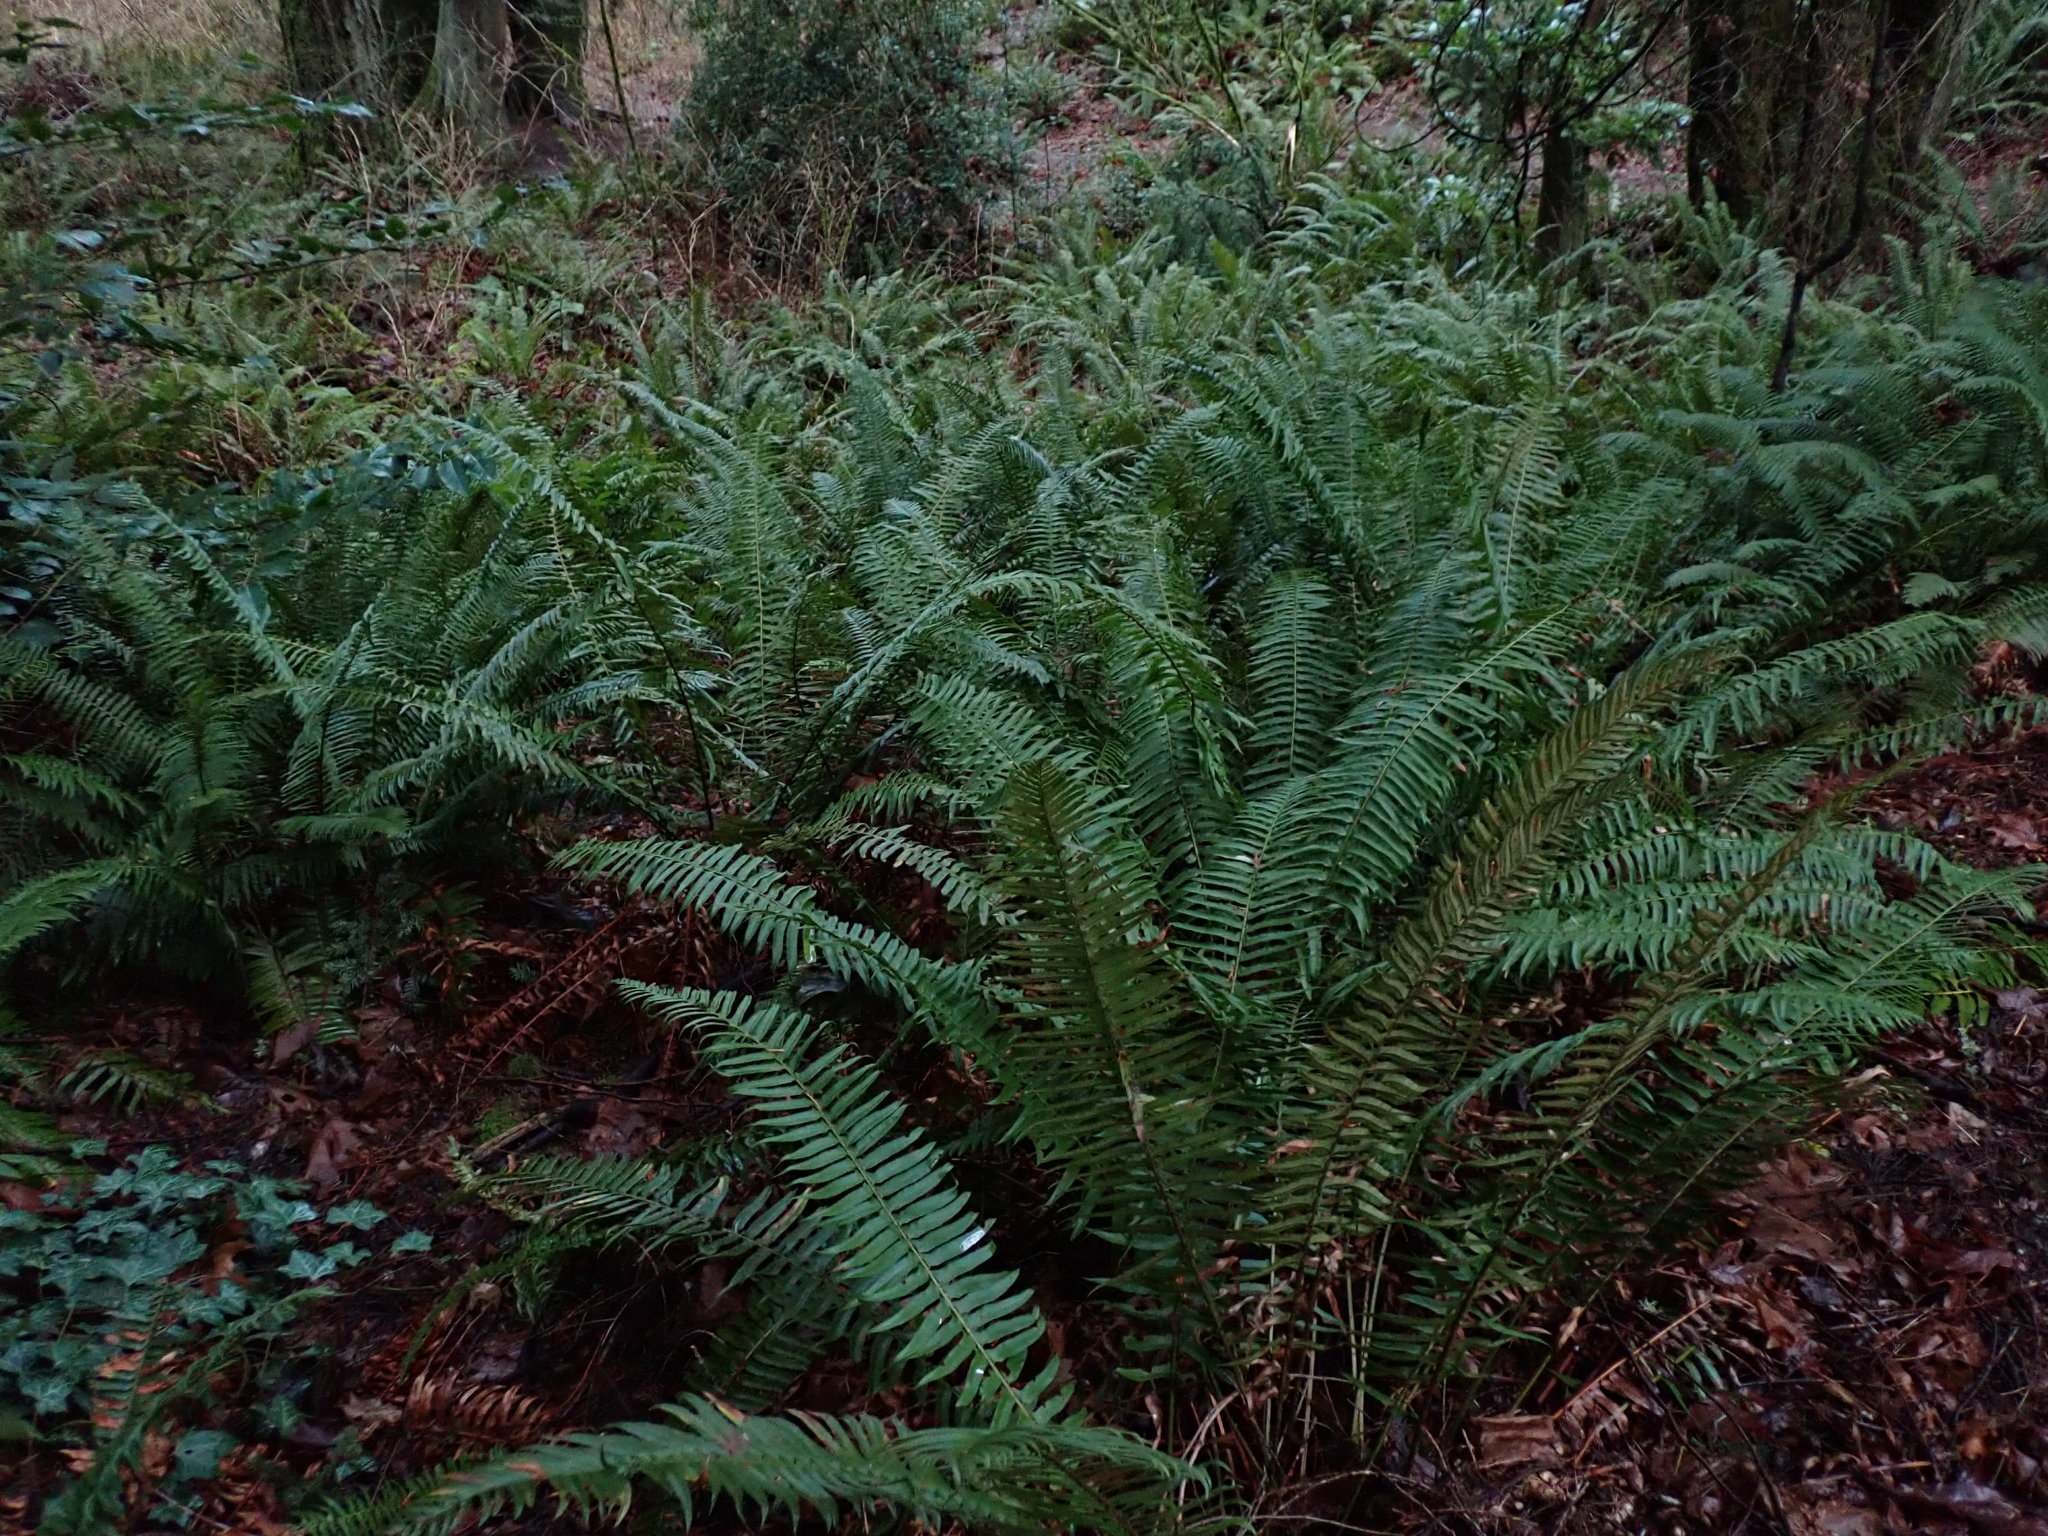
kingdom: Plantae
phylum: Tracheophyta
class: Polypodiopsida
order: Polypodiales
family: Dryopteridaceae
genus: Polystichum
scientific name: Polystichum munitum
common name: Western sword-fern
